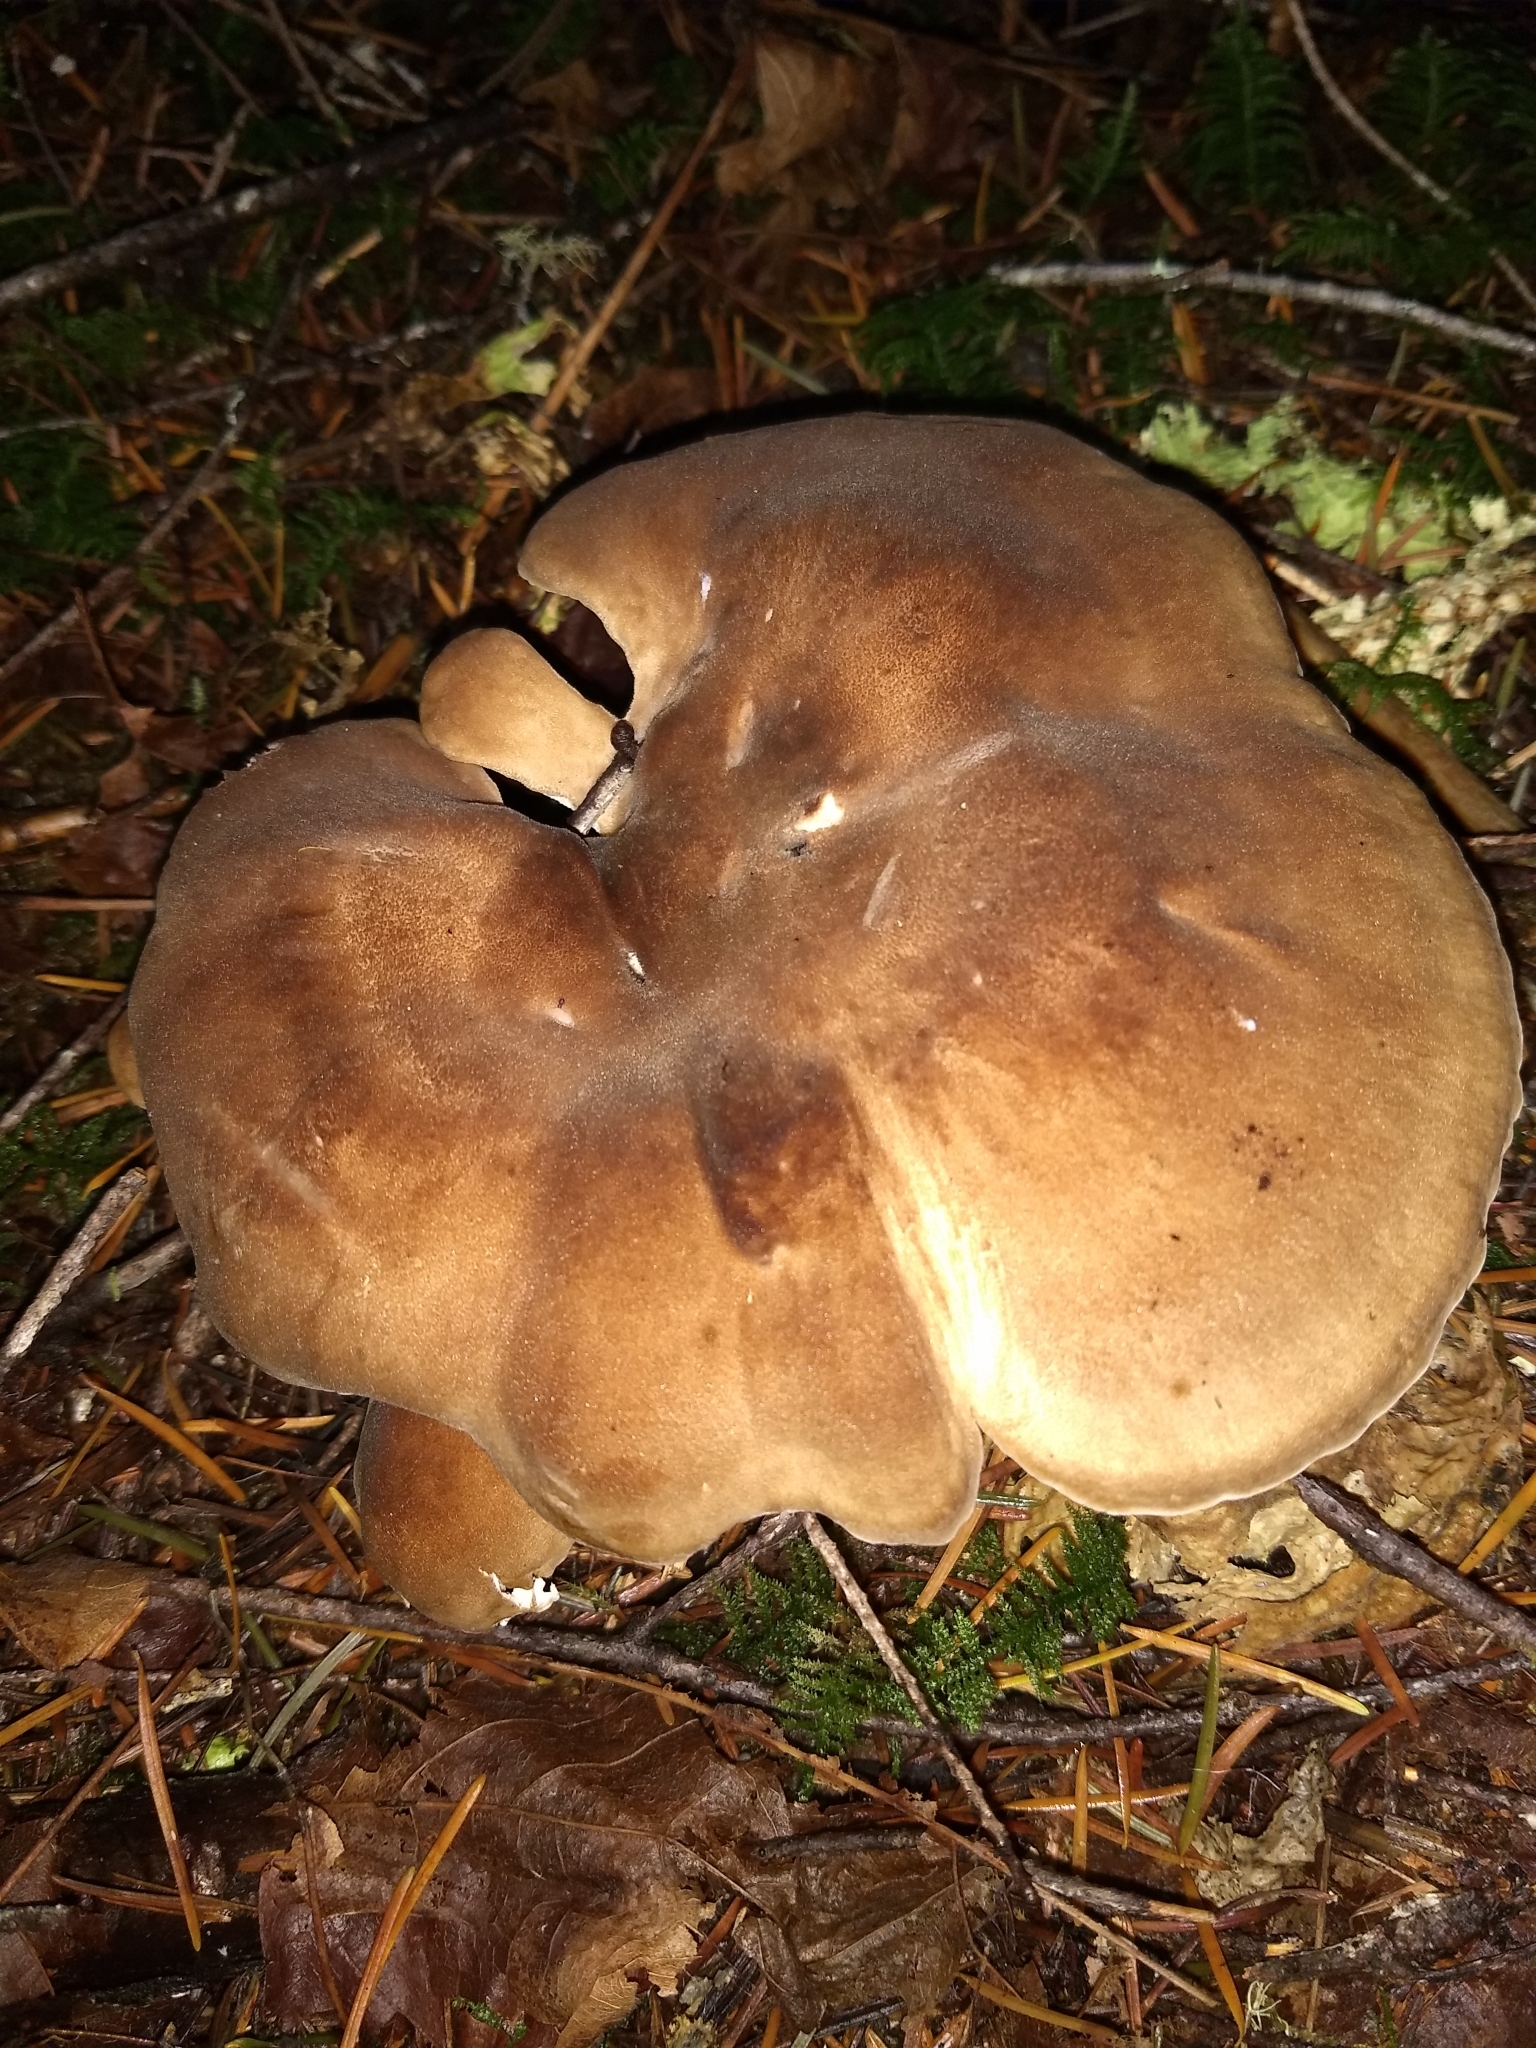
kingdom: Fungi
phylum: Basidiomycota
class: Agaricomycetes
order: Polyporales
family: Dacryobolaceae
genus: Jahnoporus
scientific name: Jahnoporus hirtus
